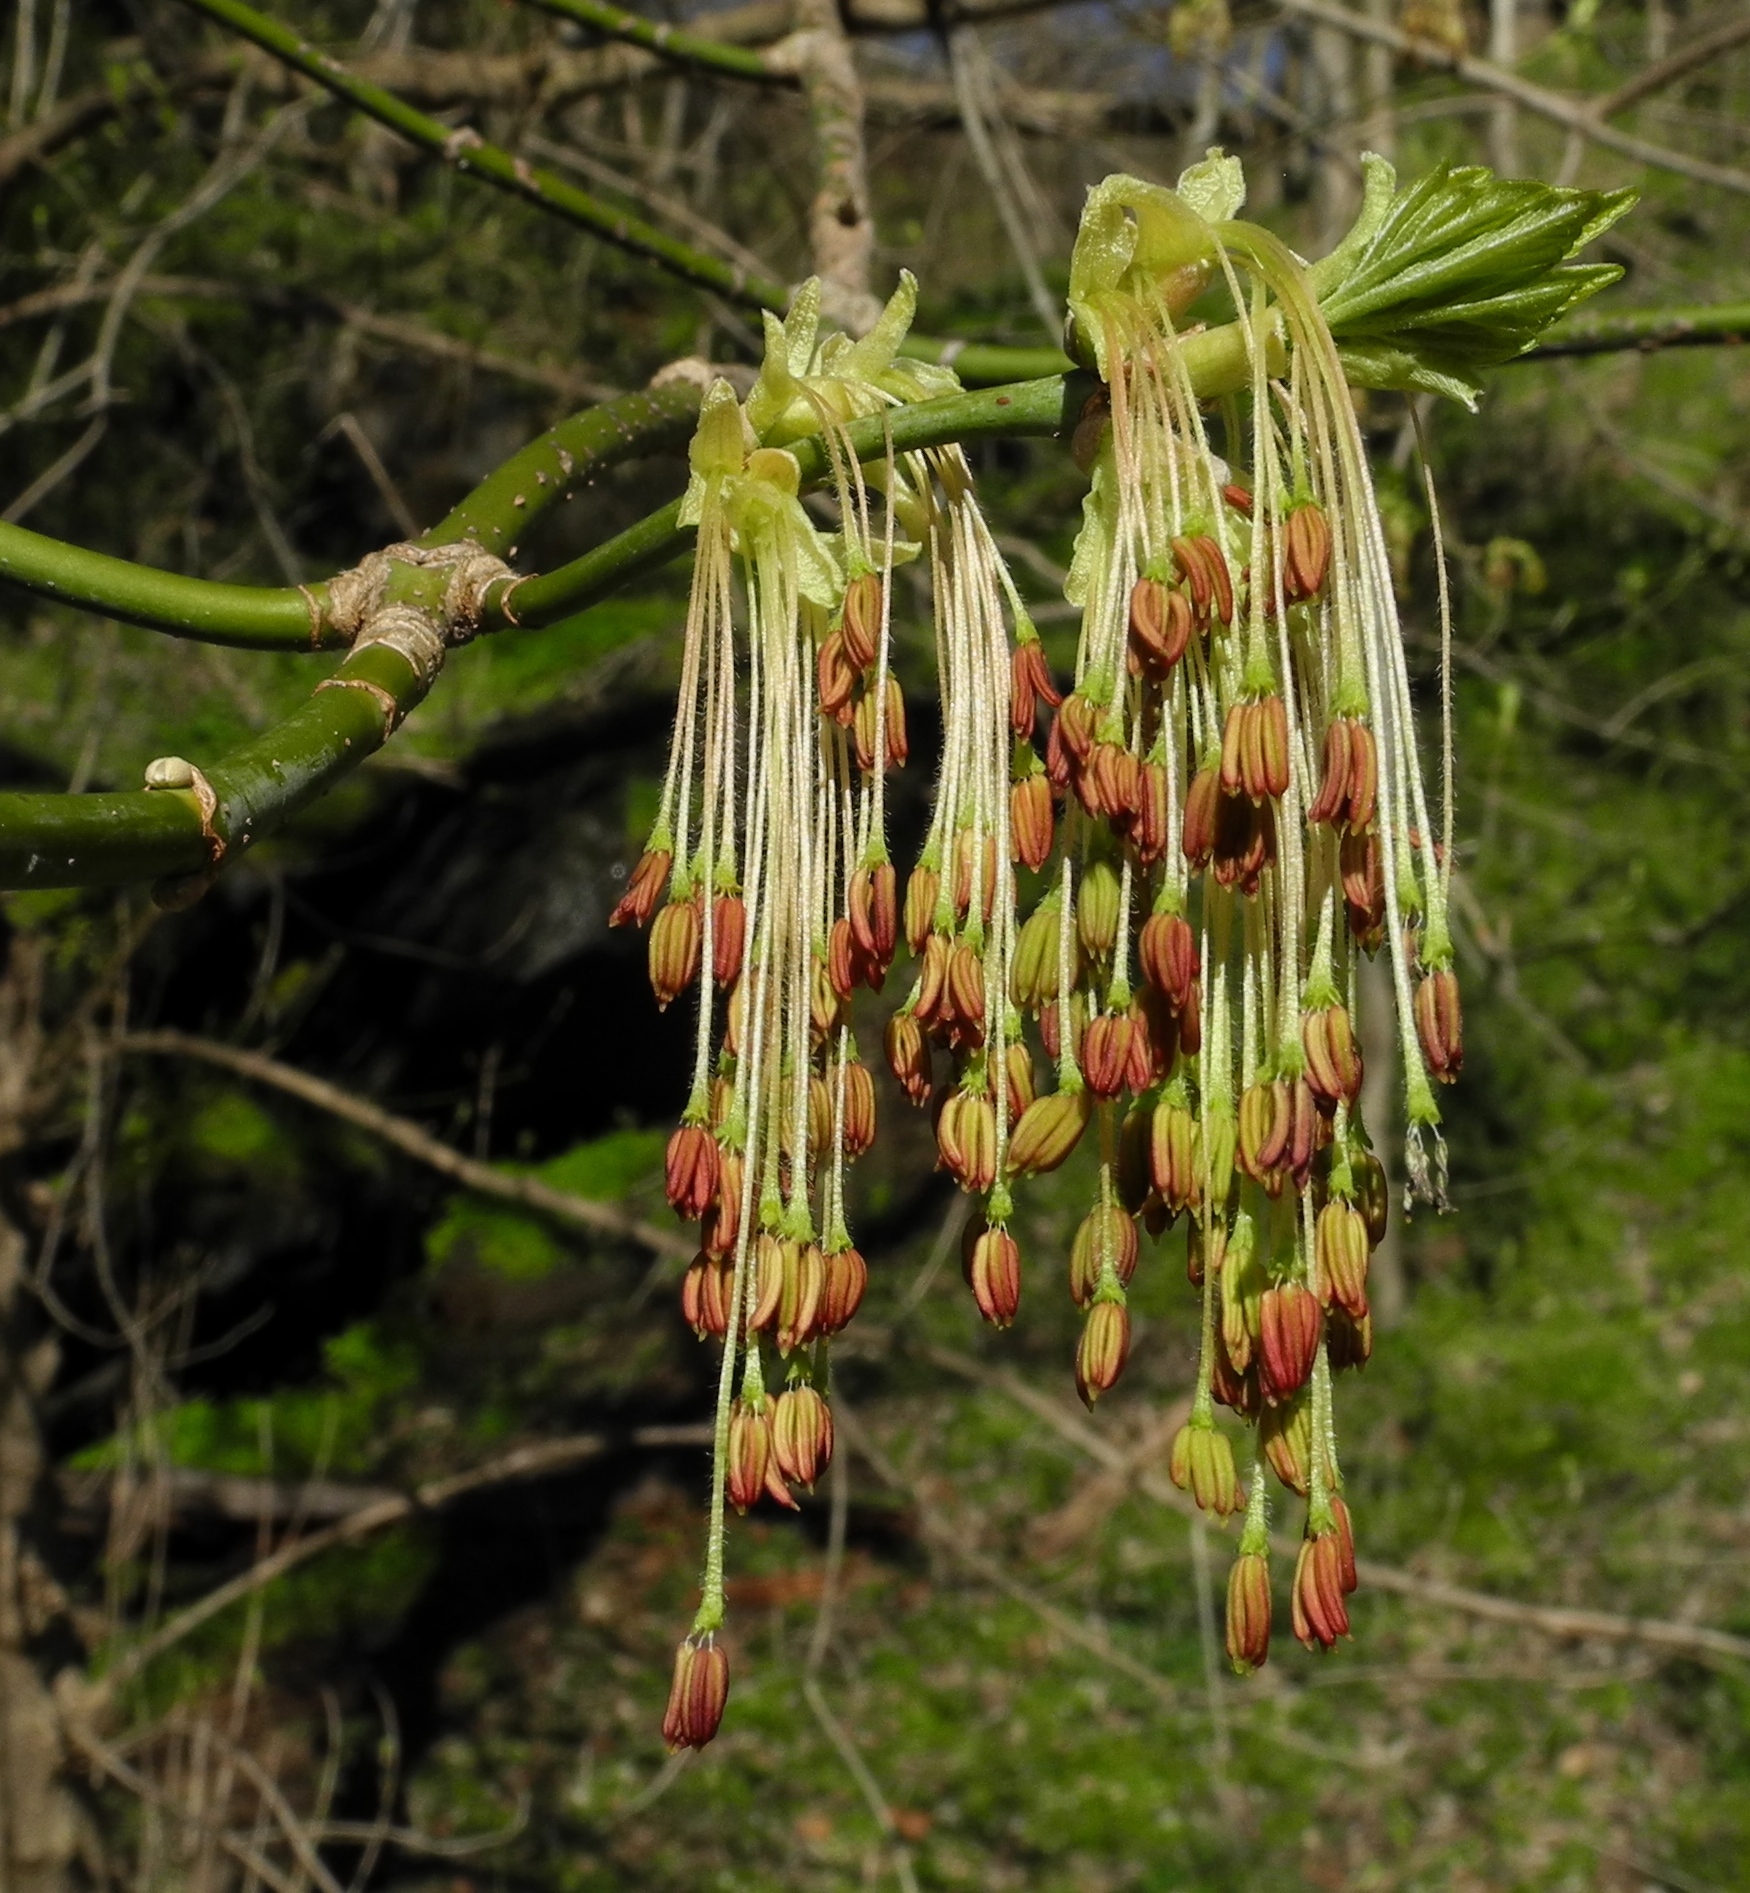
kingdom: Plantae
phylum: Tracheophyta
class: Magnoliopsida
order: Sapindales
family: Sapindaceae
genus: Acer
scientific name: Acer negundo
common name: Ashleaf maple
